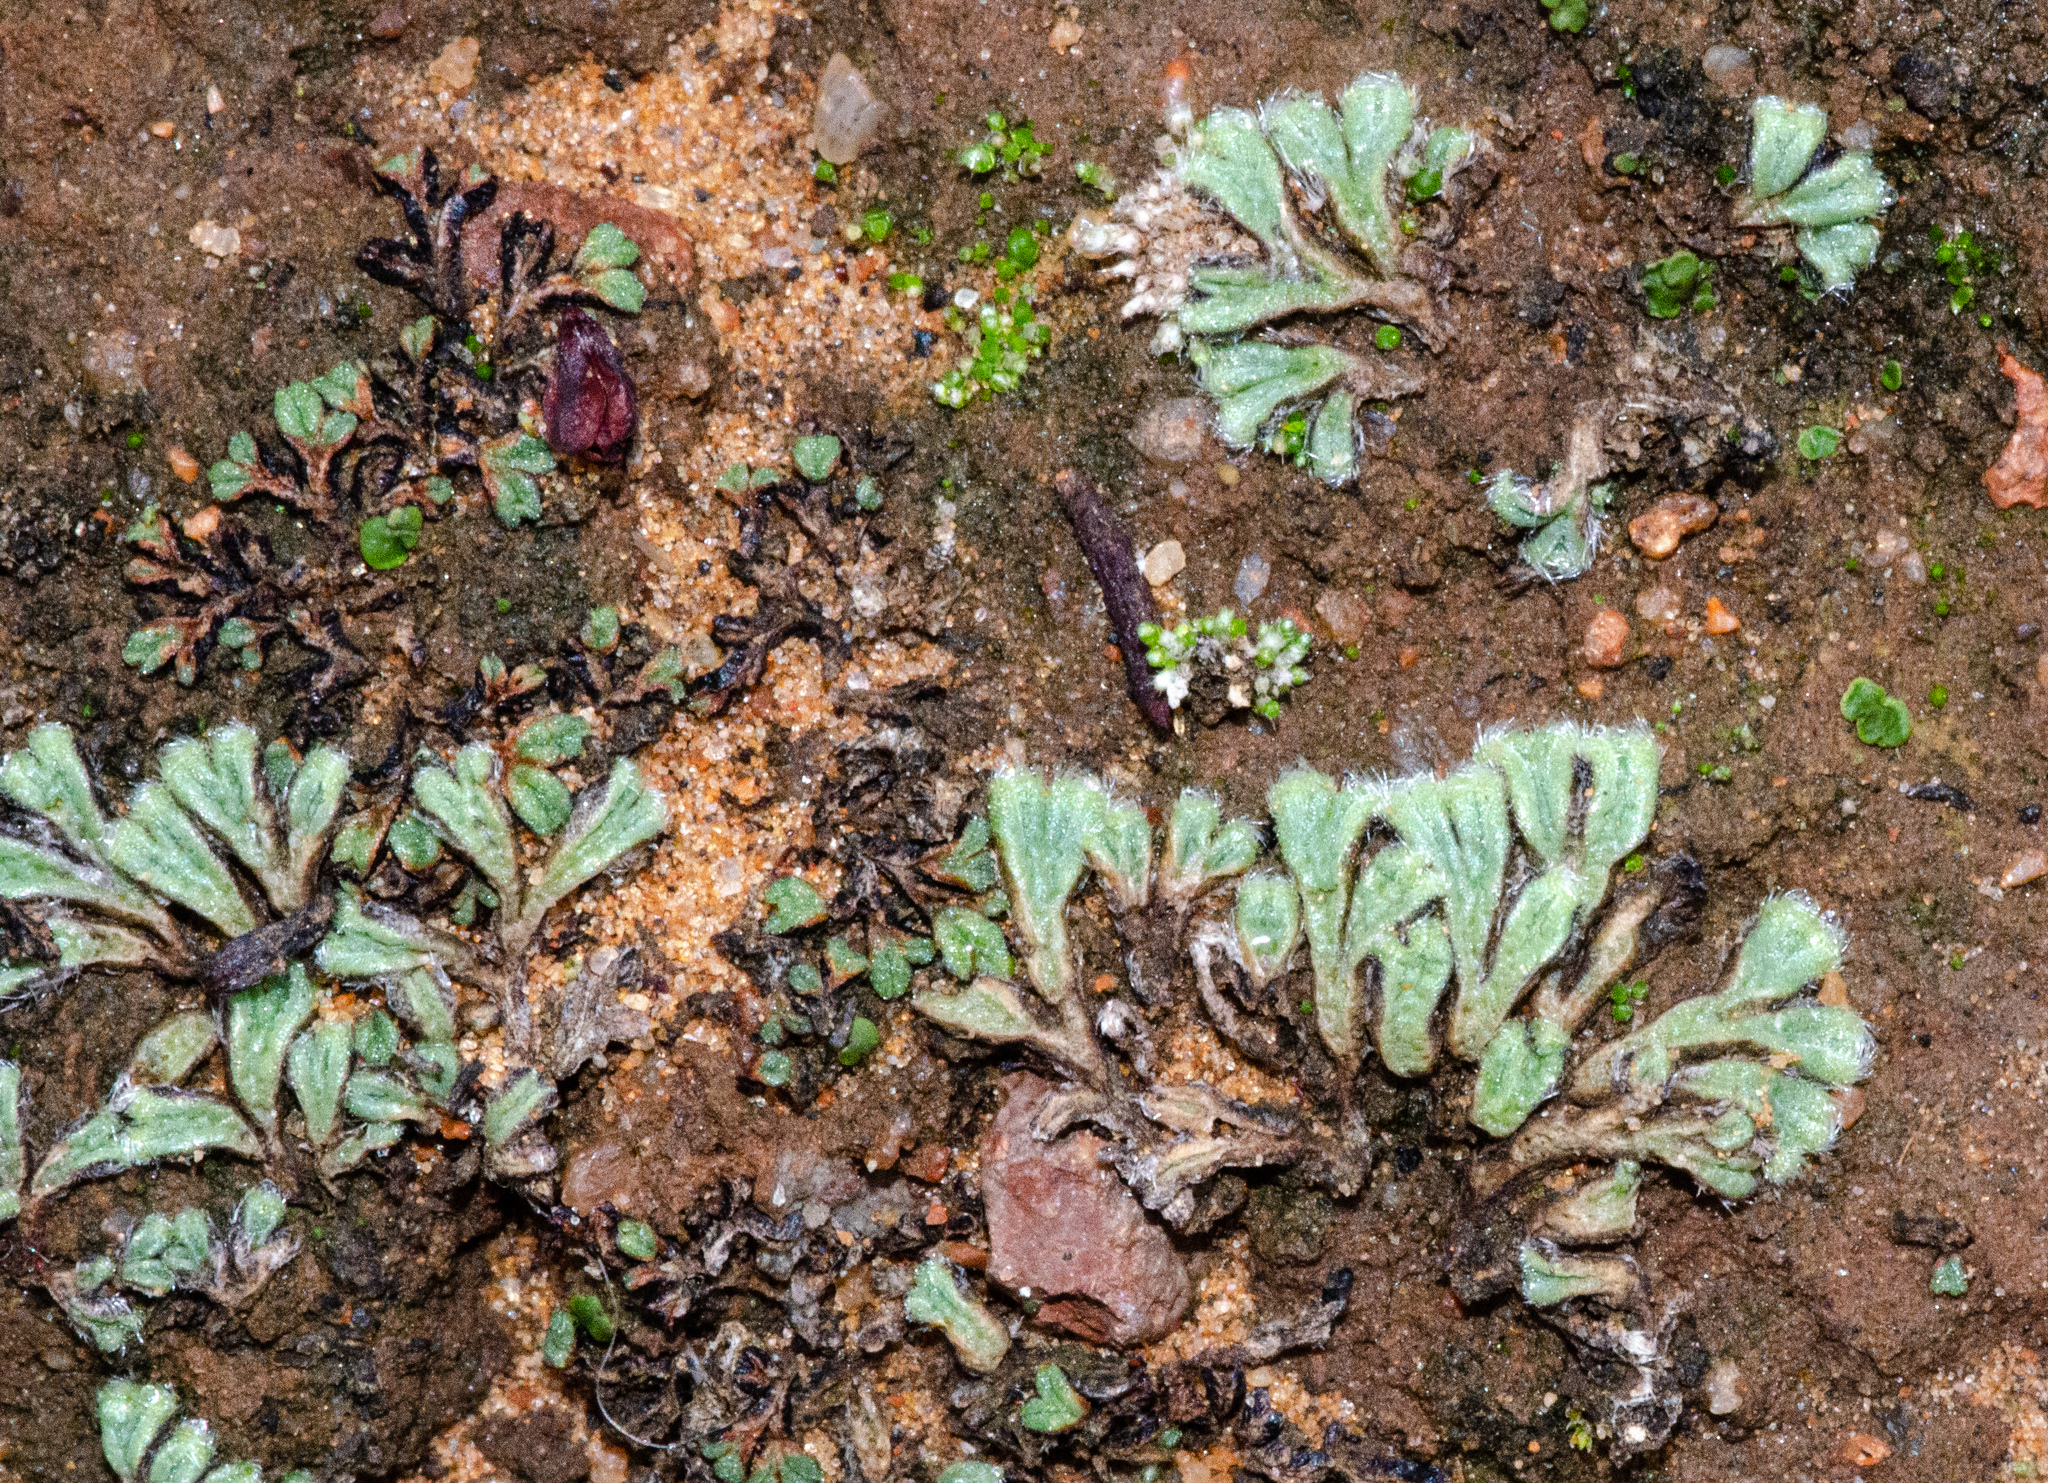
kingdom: Plantae
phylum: Marchantiophyta
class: Marchantiopsida
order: Marchantiales
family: Ricciaceae
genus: Riccia
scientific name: Riccia trichocarpa
